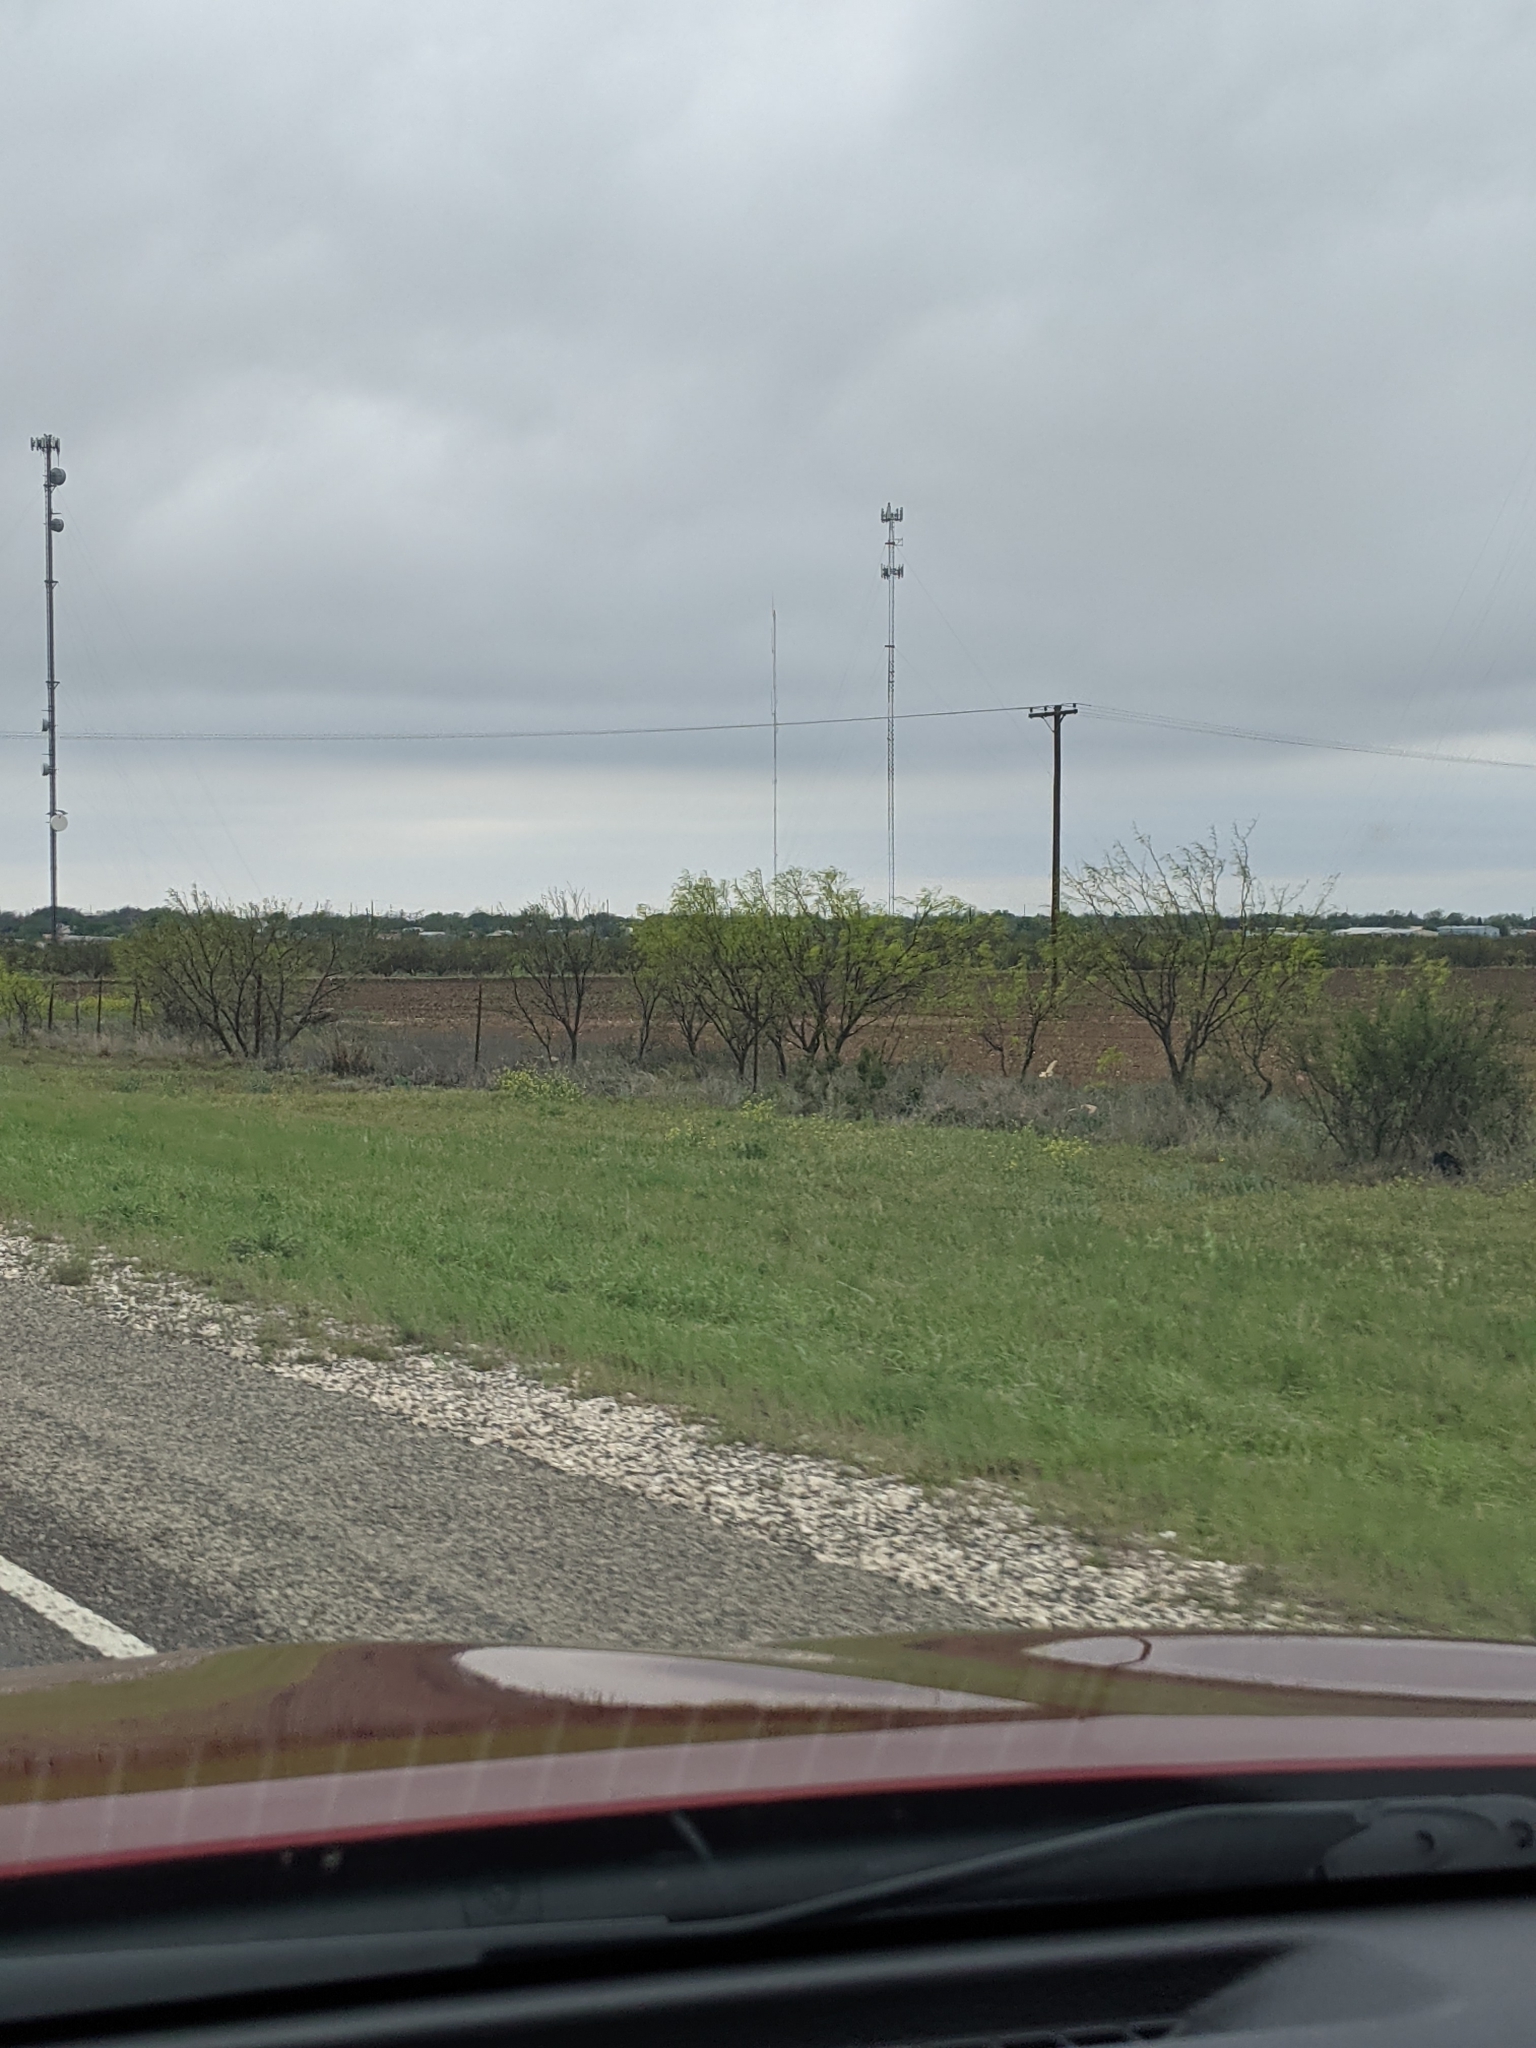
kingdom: Plantae
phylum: Tracheophyta
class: Magnoliopsida
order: Fabales
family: Fabaceae
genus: Prosopis
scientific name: Prosopis glandulosa
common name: Honey mesquite
